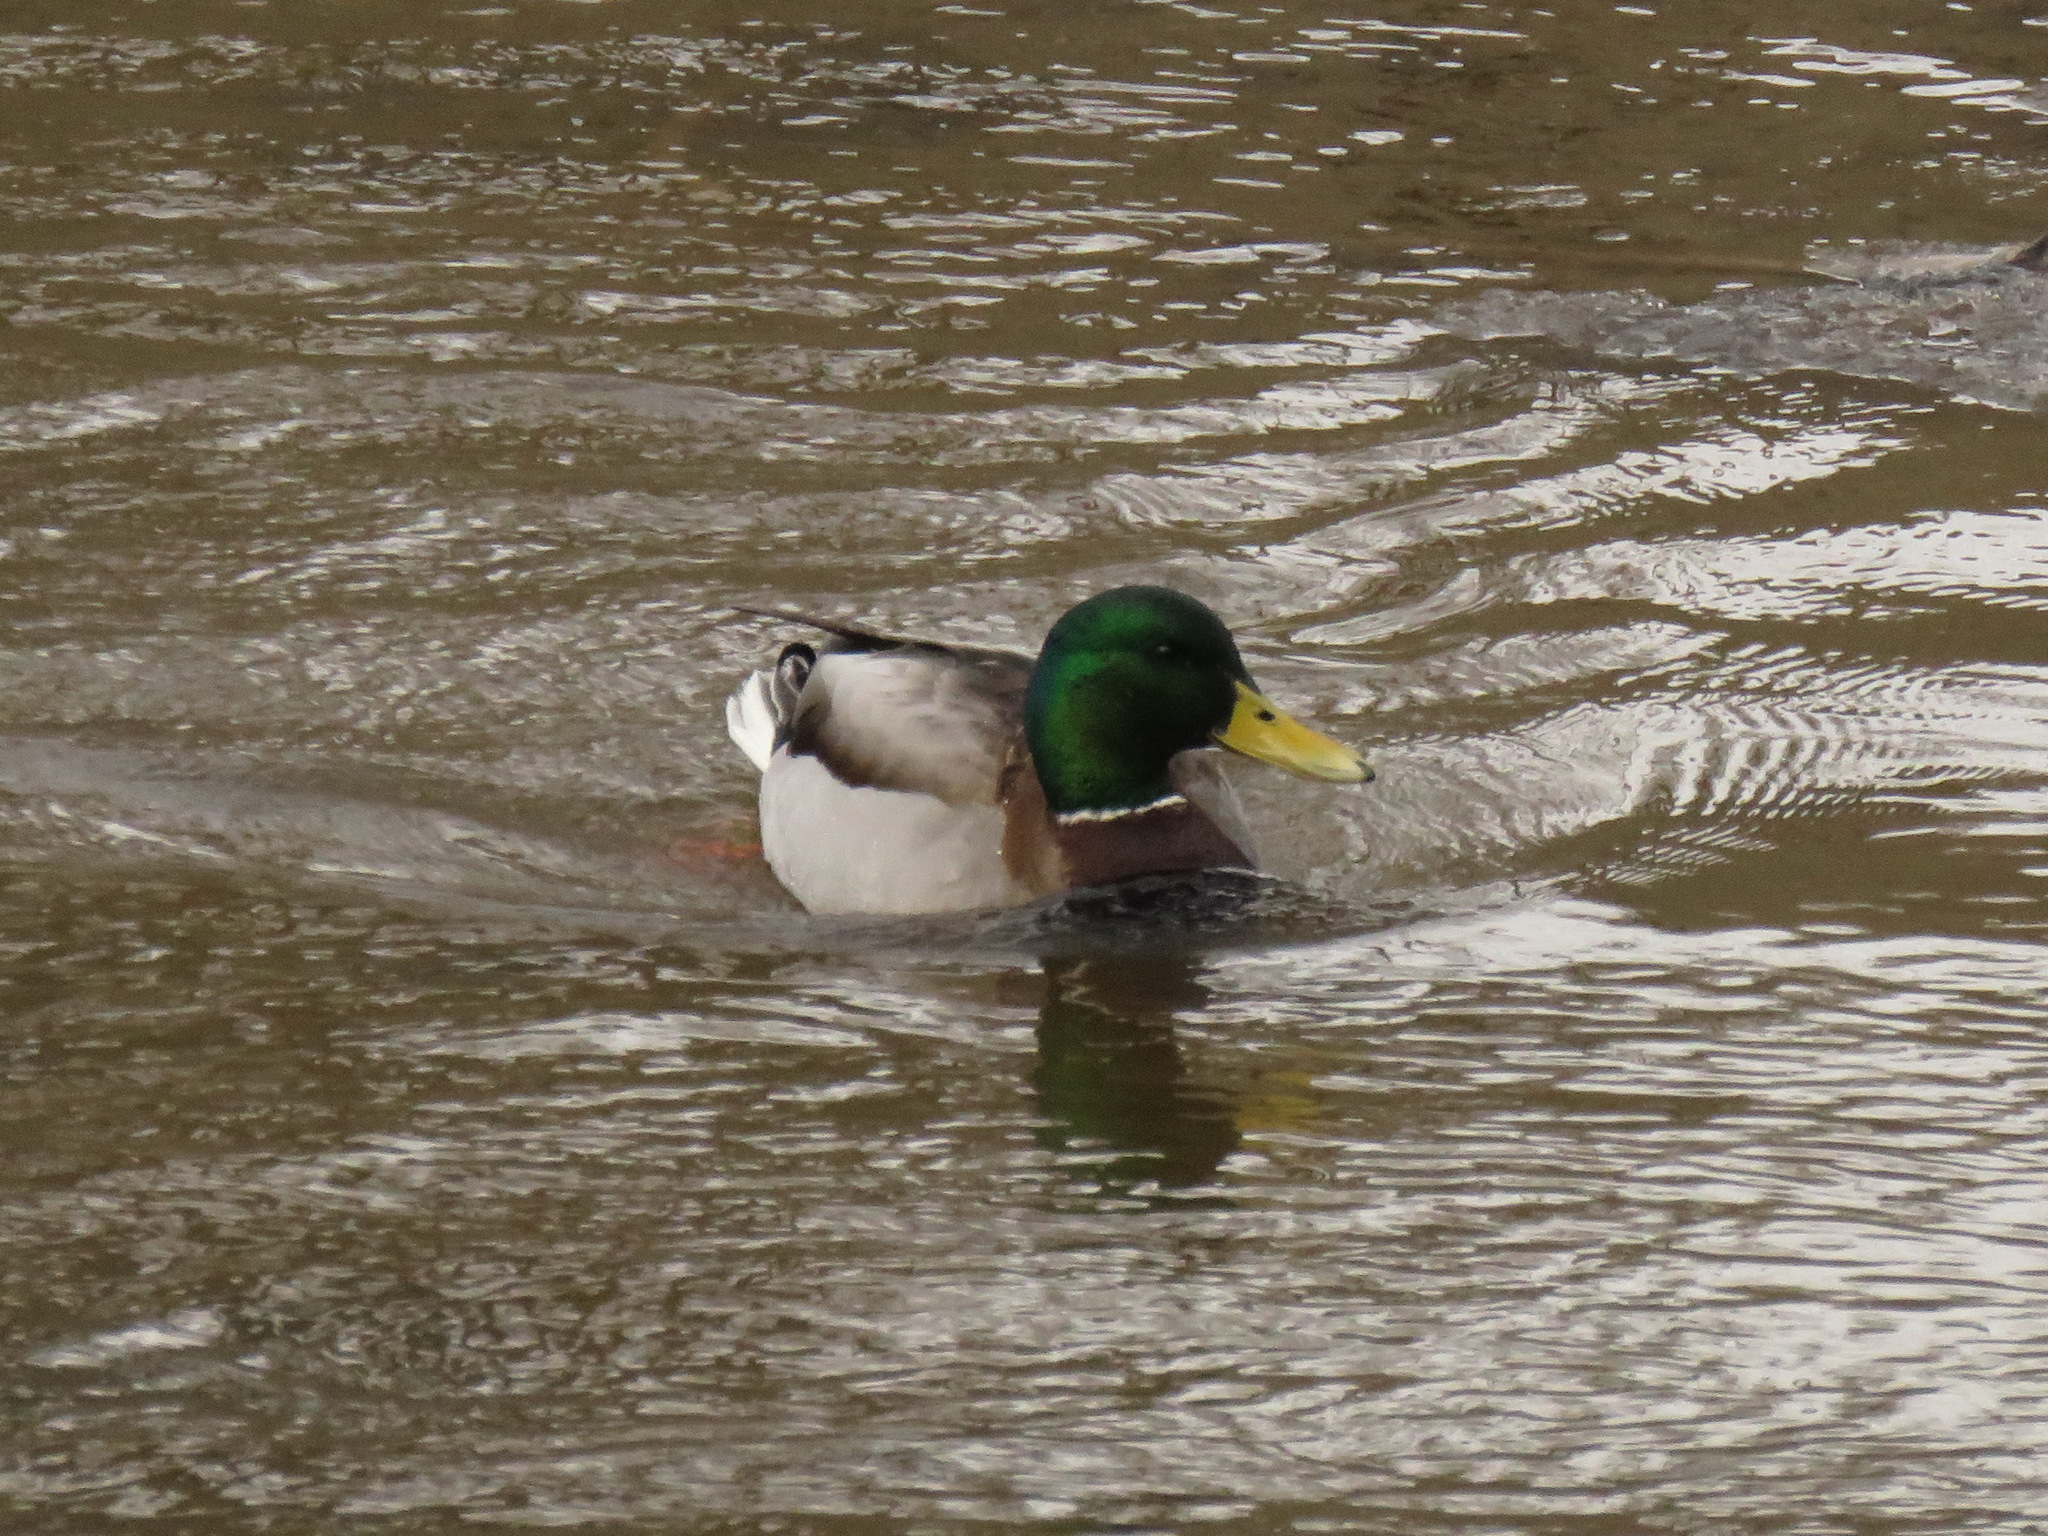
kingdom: Animalia
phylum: Chordata
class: Aves
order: Anseriformes
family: Anatidae
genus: Anas
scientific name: Anas platyrhynchos
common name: Mallard
